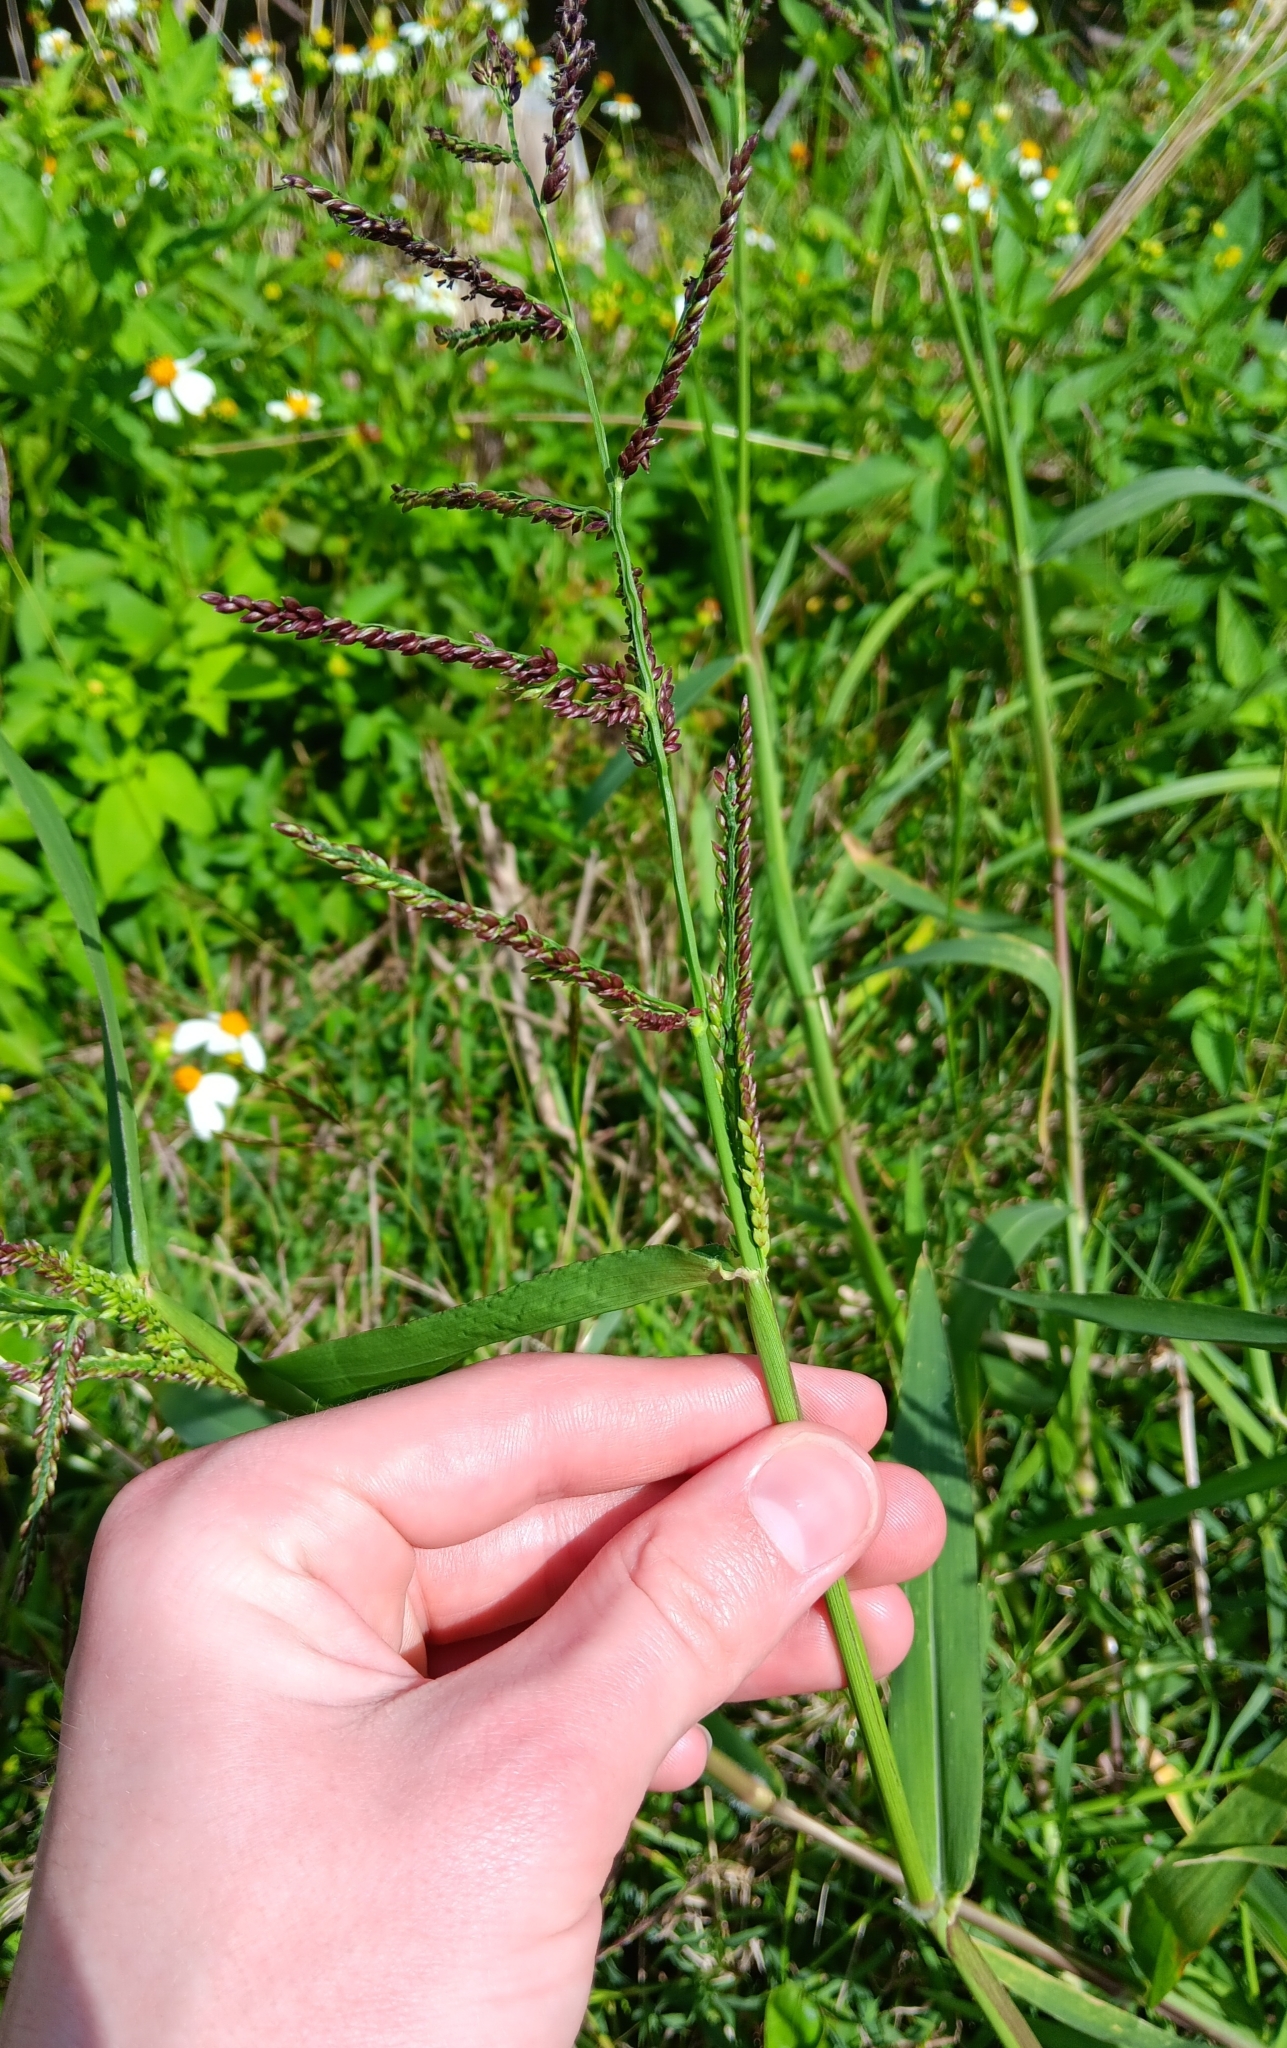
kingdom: Plantae
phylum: Tracheophyta
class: Liliopsida
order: Poales
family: Poaceae
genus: Urochloa
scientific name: Urochloa mutica
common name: Para grass
